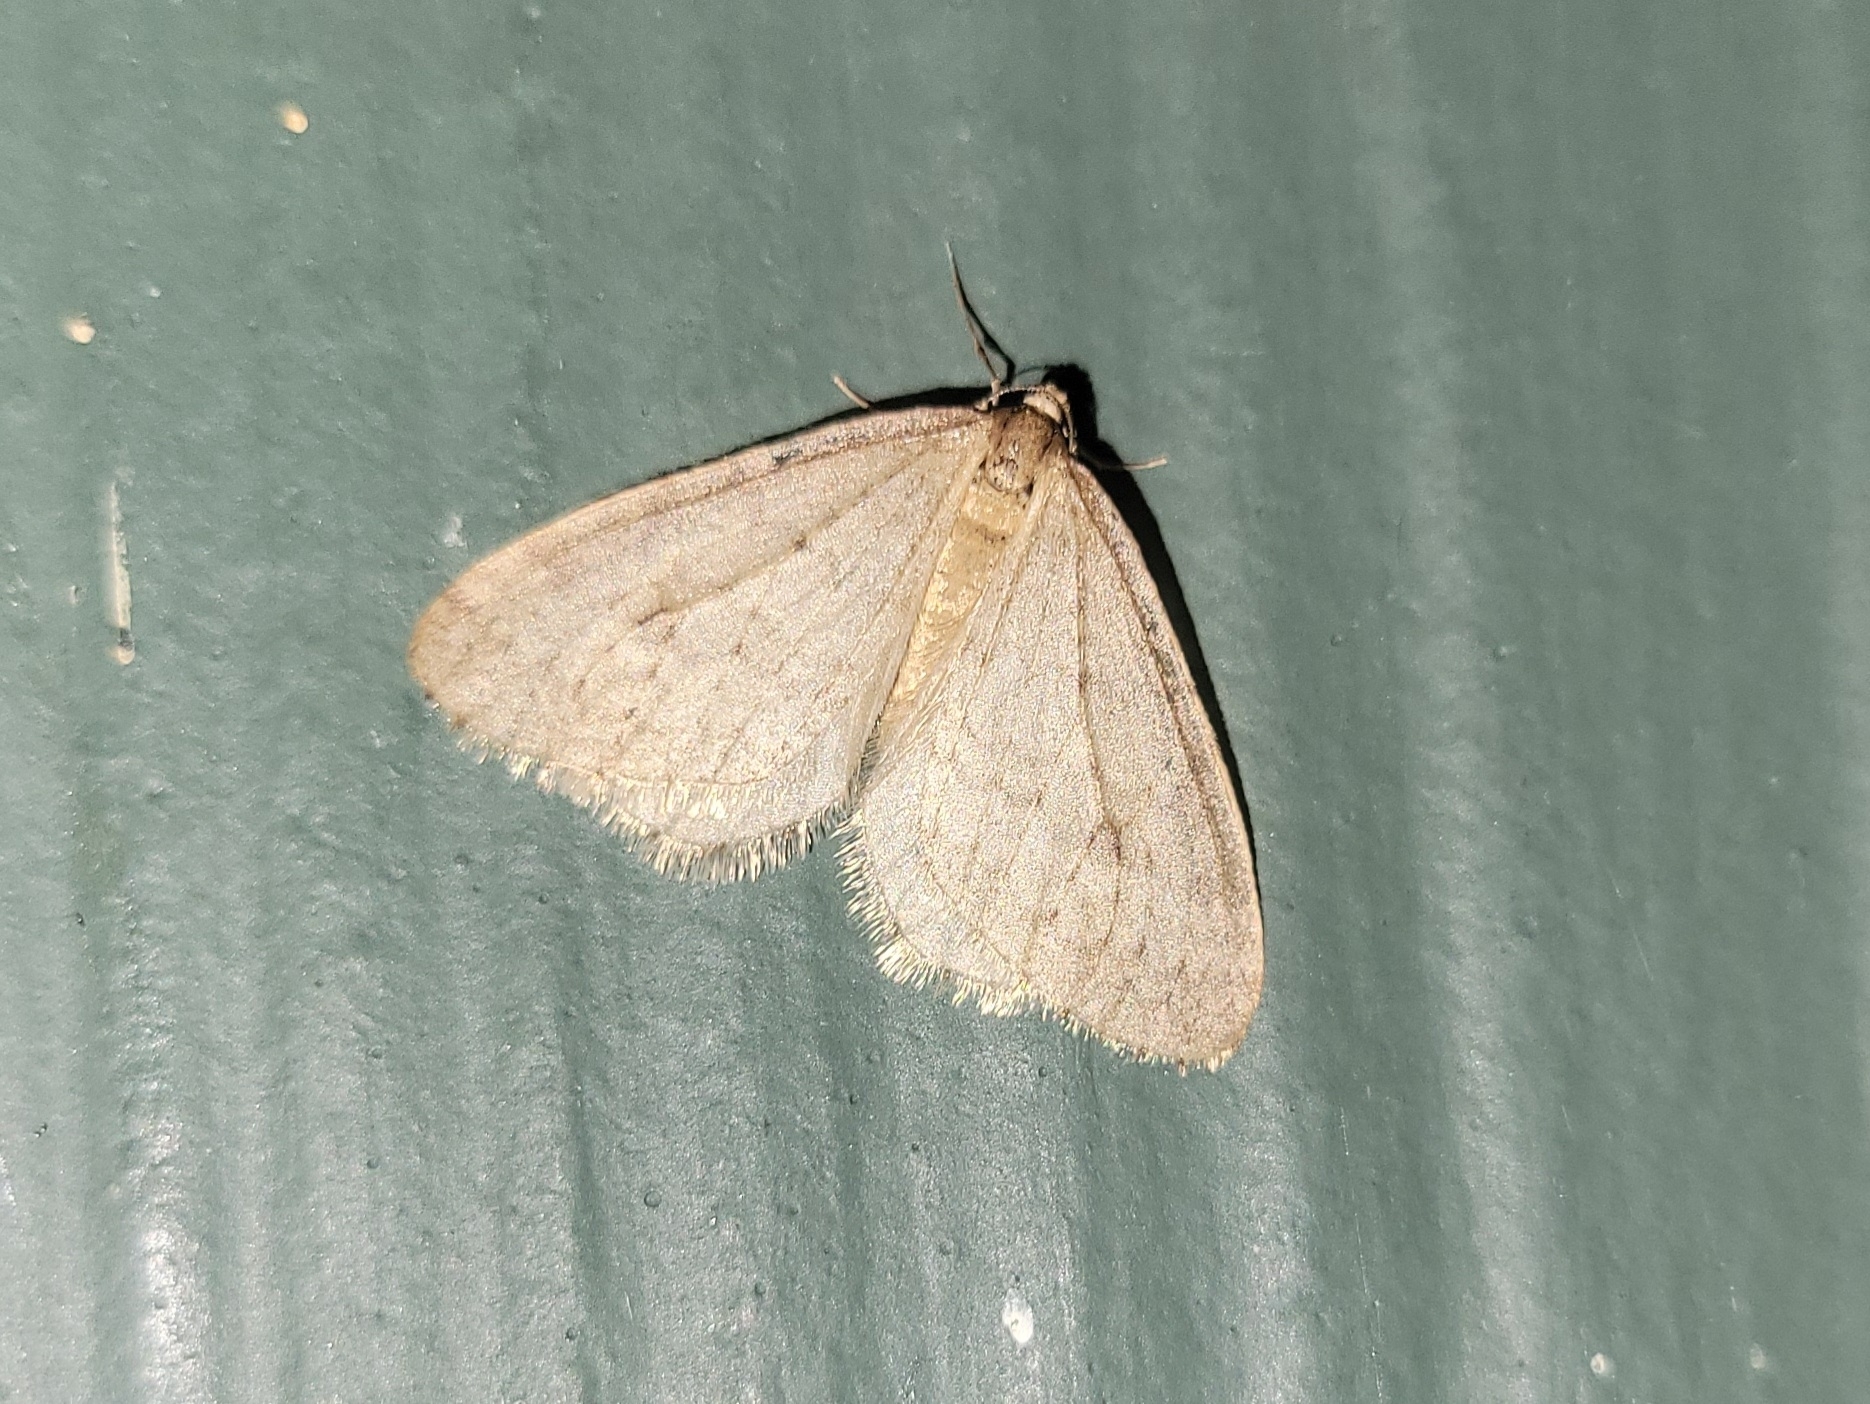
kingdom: Animalia
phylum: Arthropoda
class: Insecta
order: Lepidoptera
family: Geometridae
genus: Operophtera
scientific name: Operophtera bruceata
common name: Bruce spanworm
